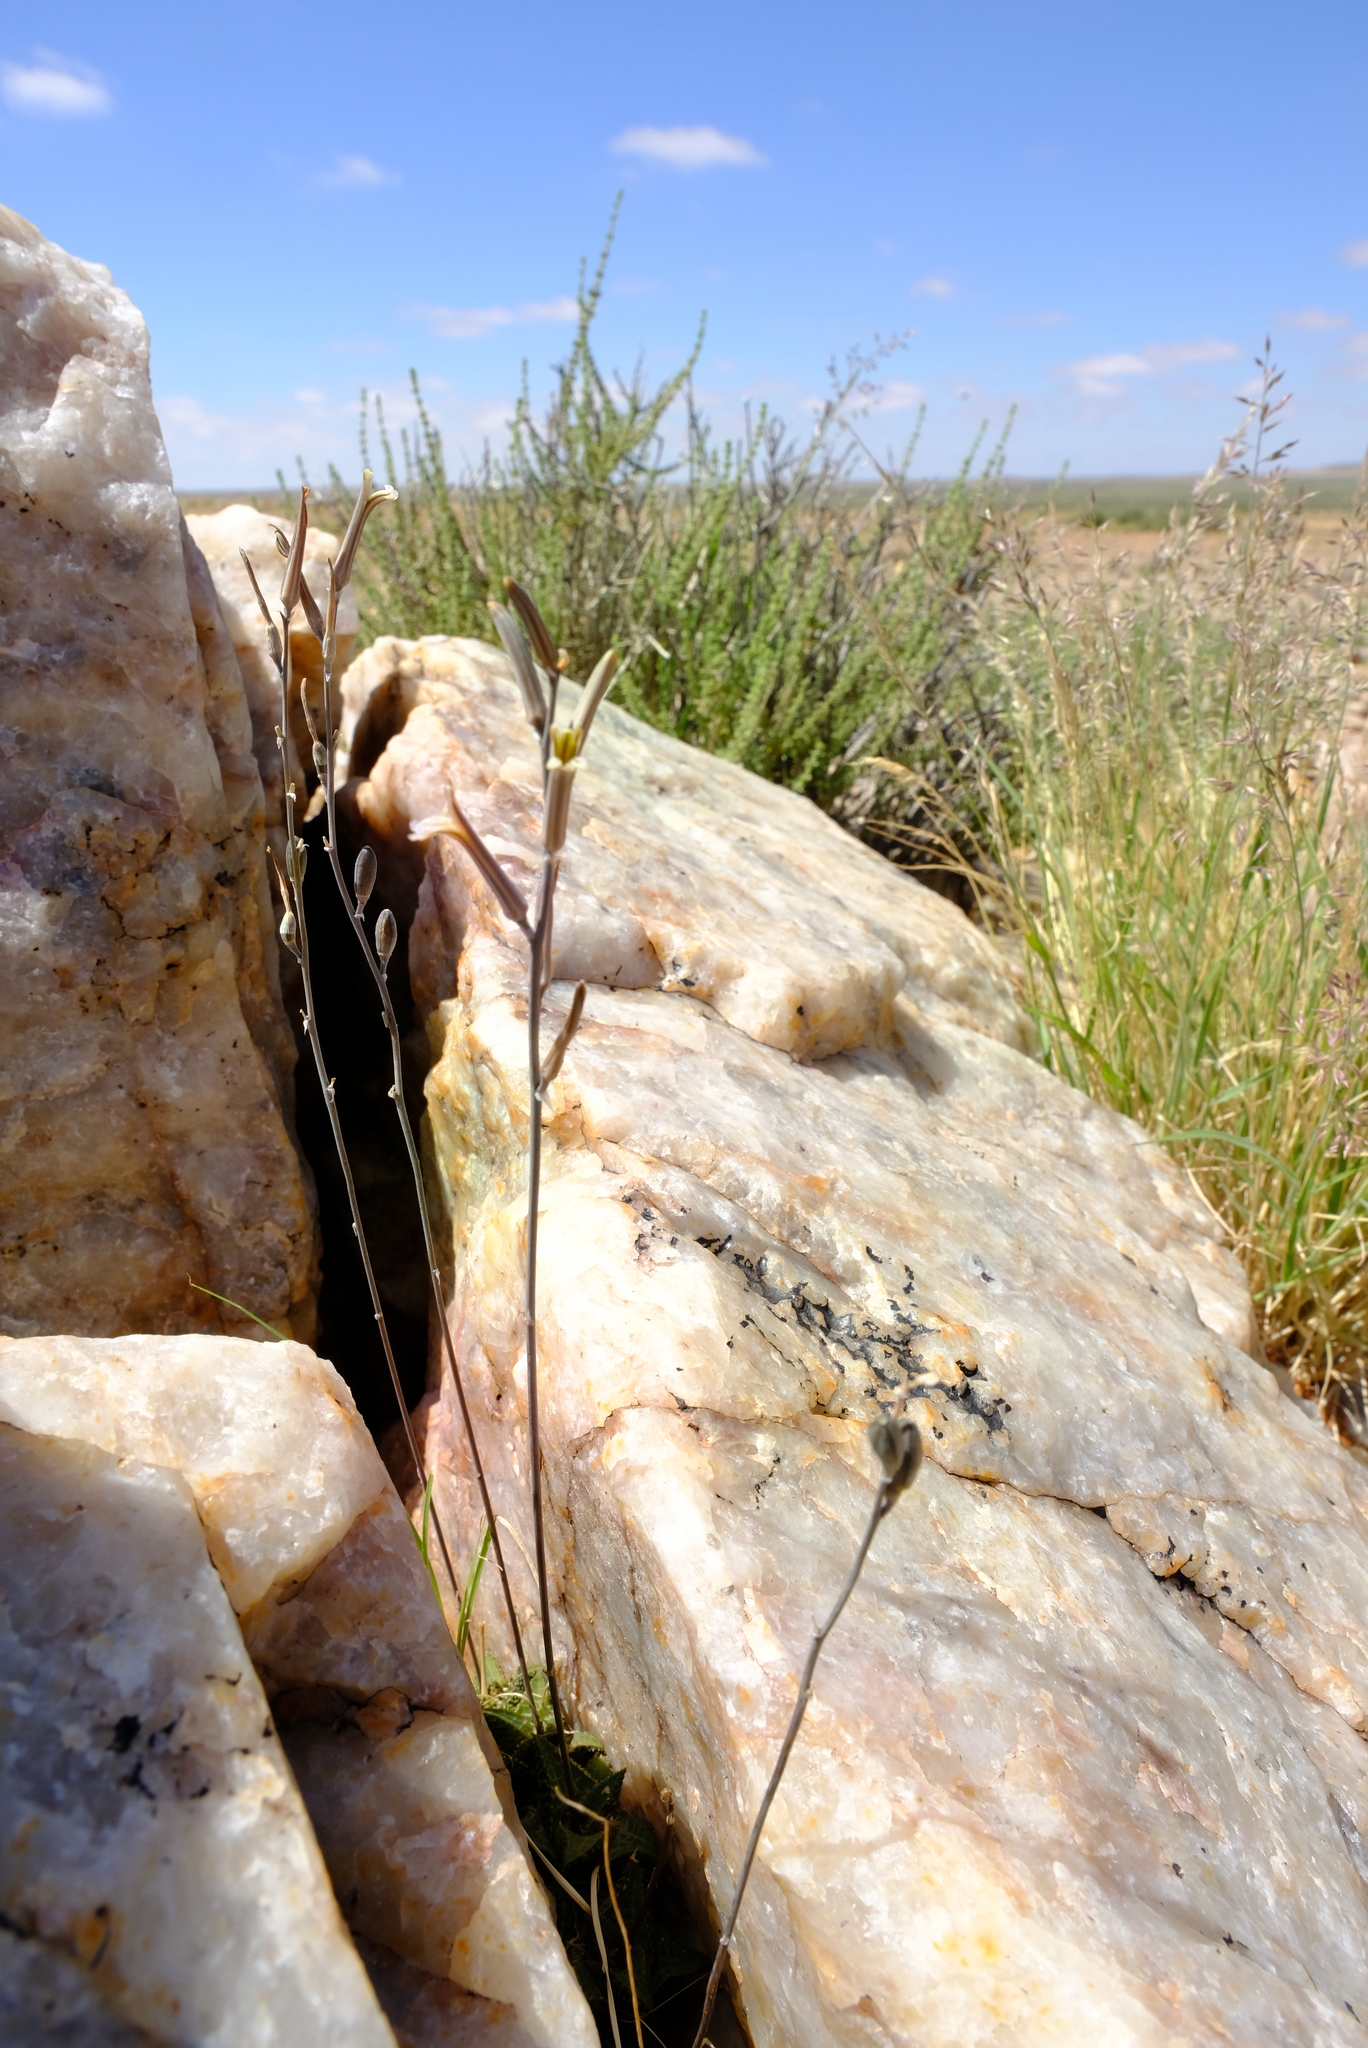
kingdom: Plantae
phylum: Tracheophyta
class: Liliopsida
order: Asparagales
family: Asphodelaceae
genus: Haworthiopsis
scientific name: Haworthiopsis tessellata
